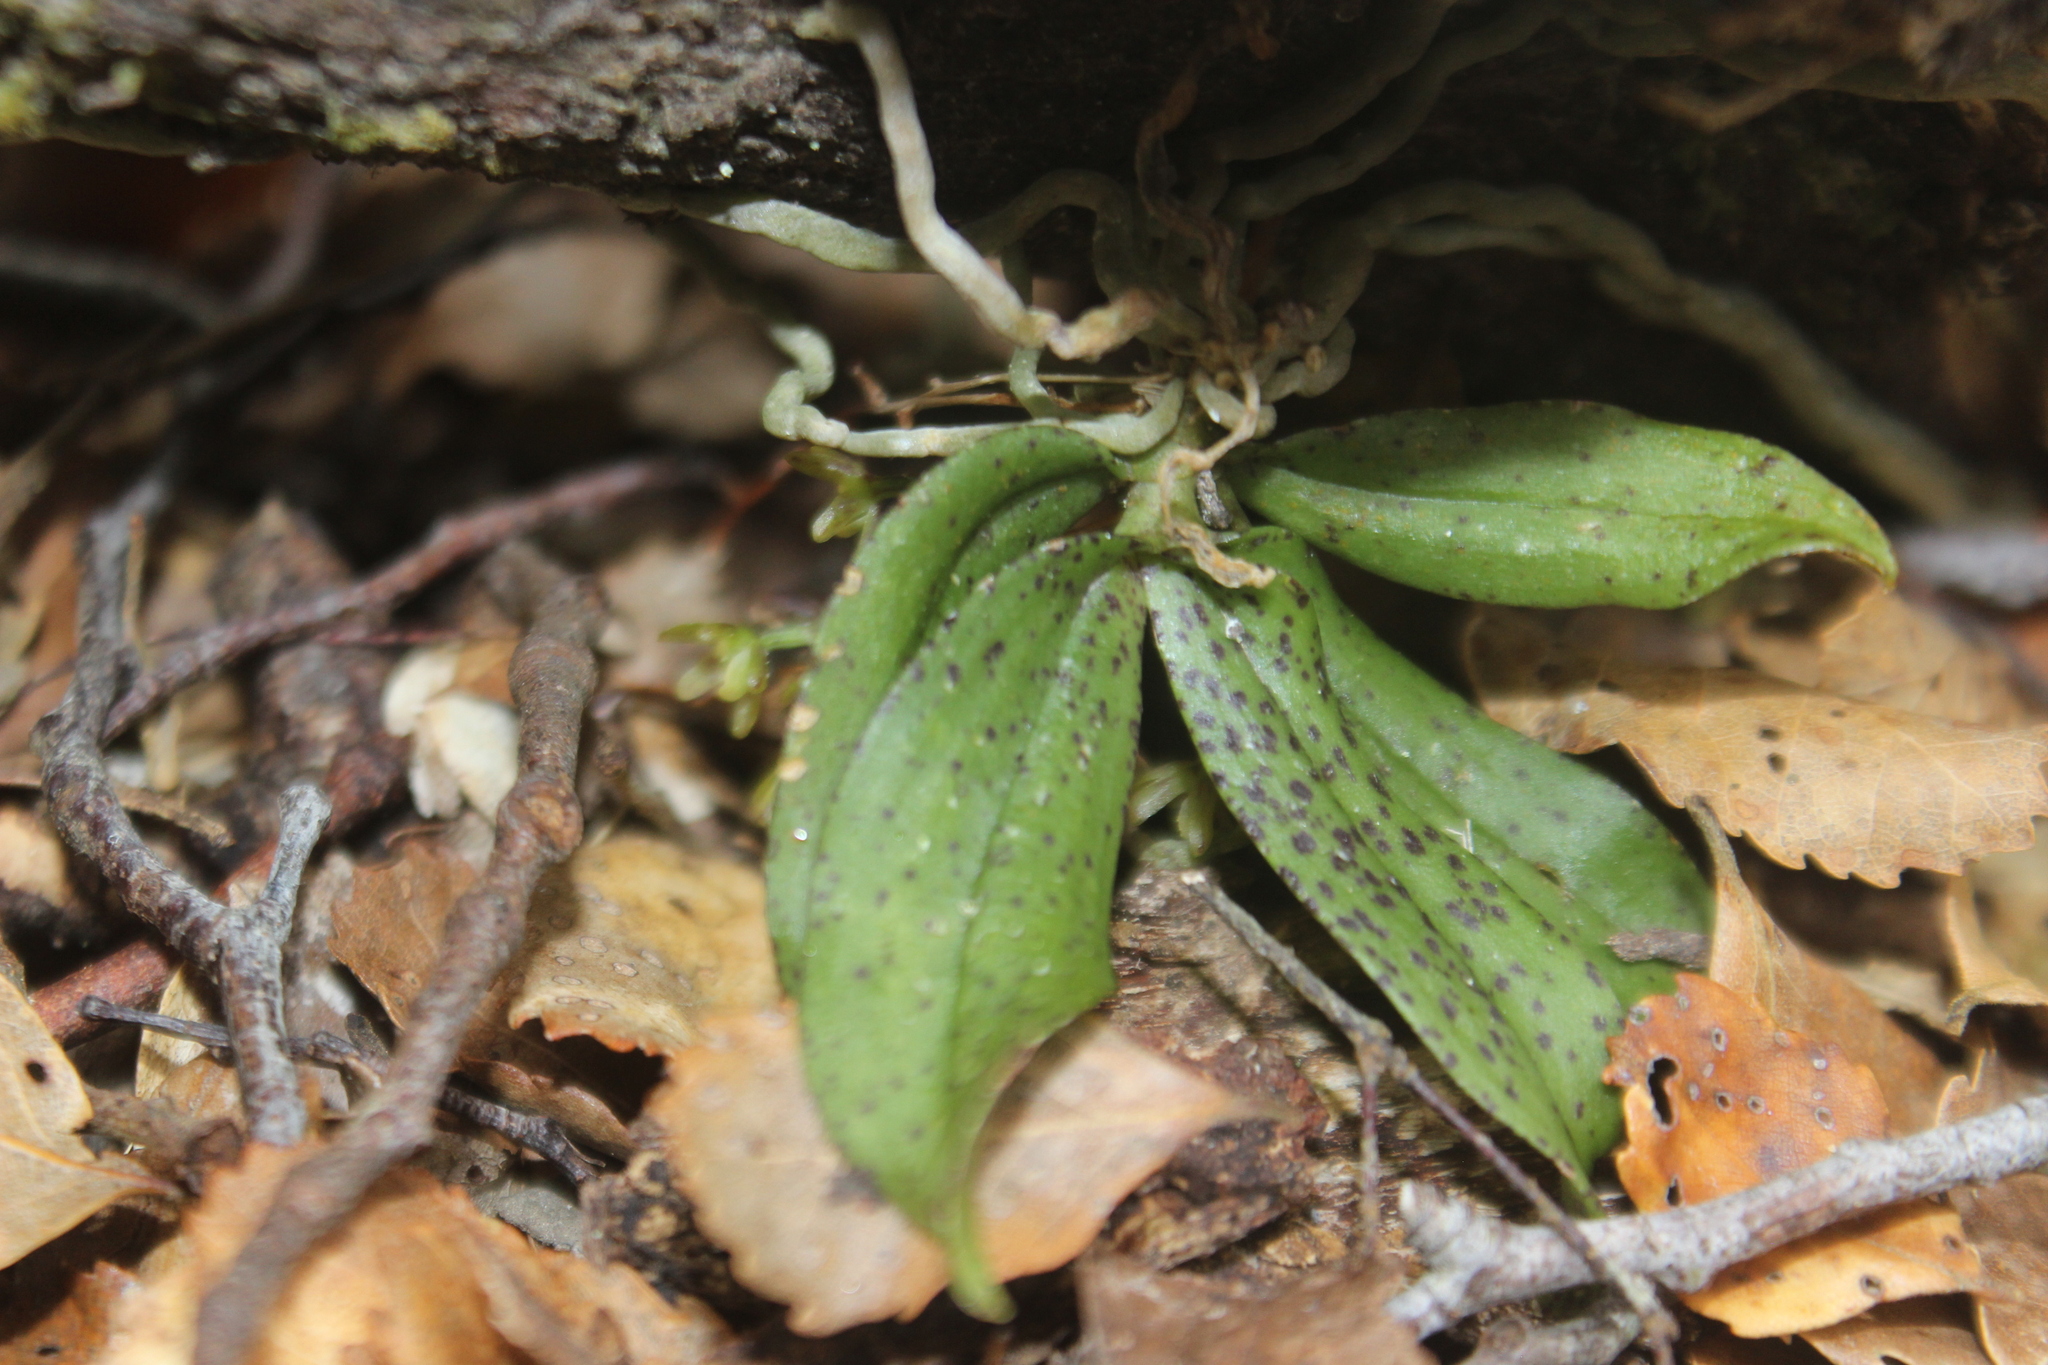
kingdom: Plantae
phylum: Tracheophyta
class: Liliopsida
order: Asparagales
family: Orchidaceae
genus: Drymoanthus
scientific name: Drymoanthus flavus
